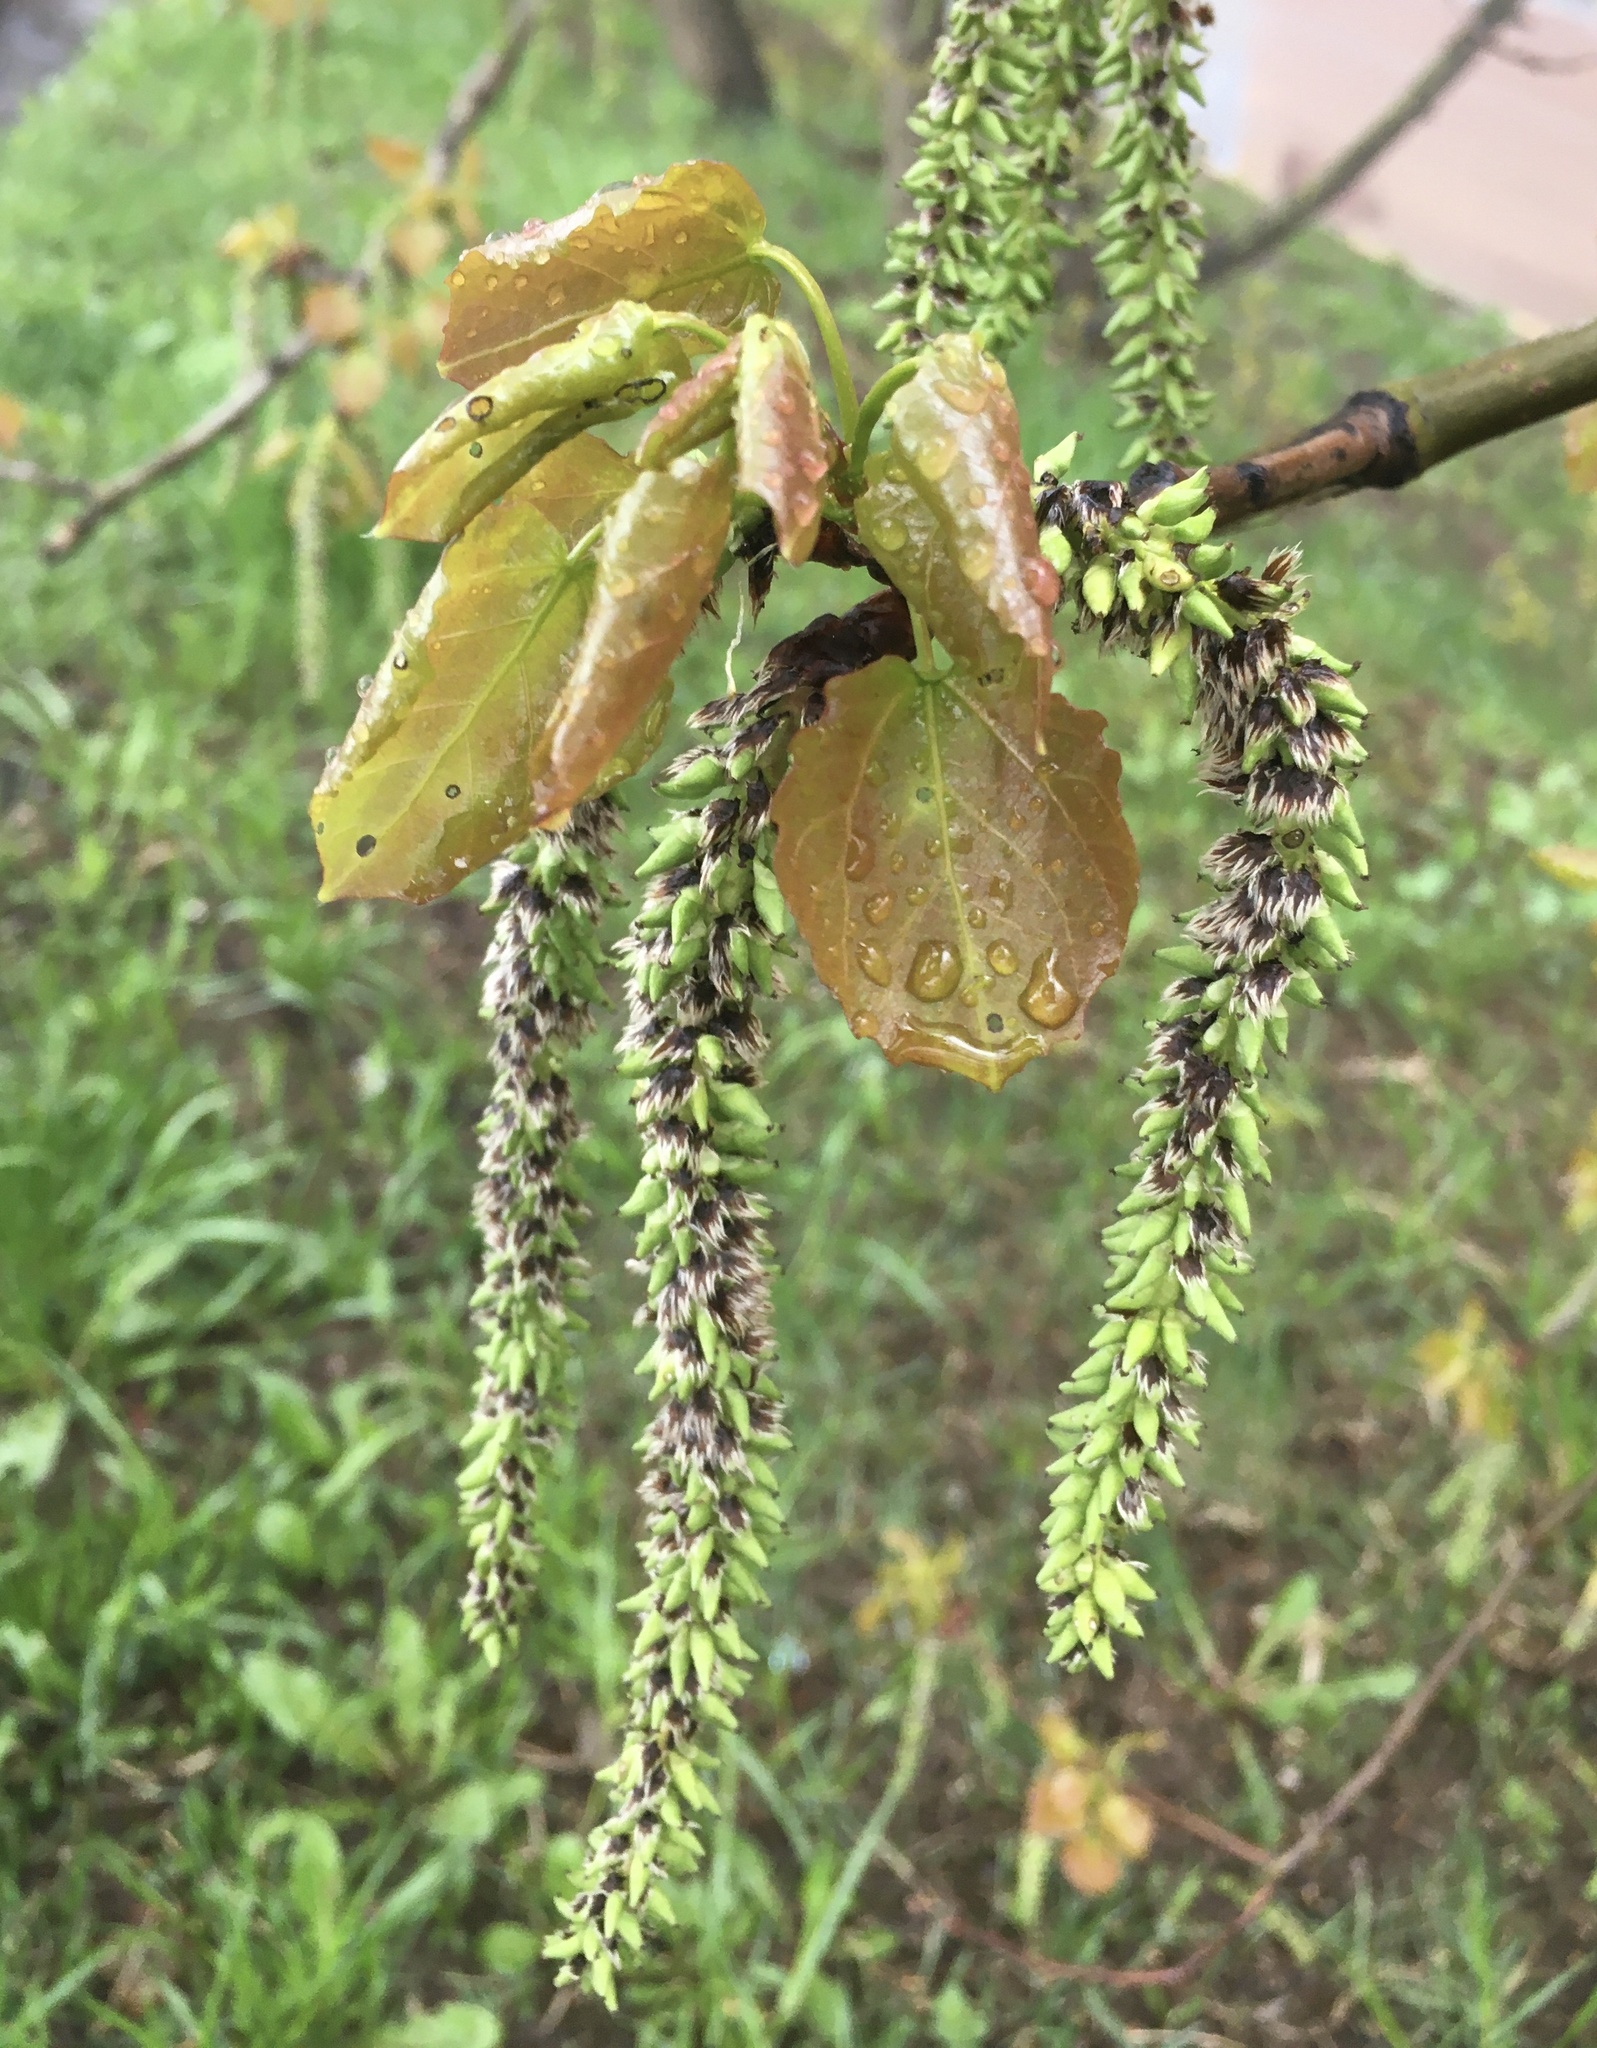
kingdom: Plantae
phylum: Tracheophyta
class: Magnoliopsida
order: Malpighiales
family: Salicaceae
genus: Populus
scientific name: Populus tremula
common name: European aspen
